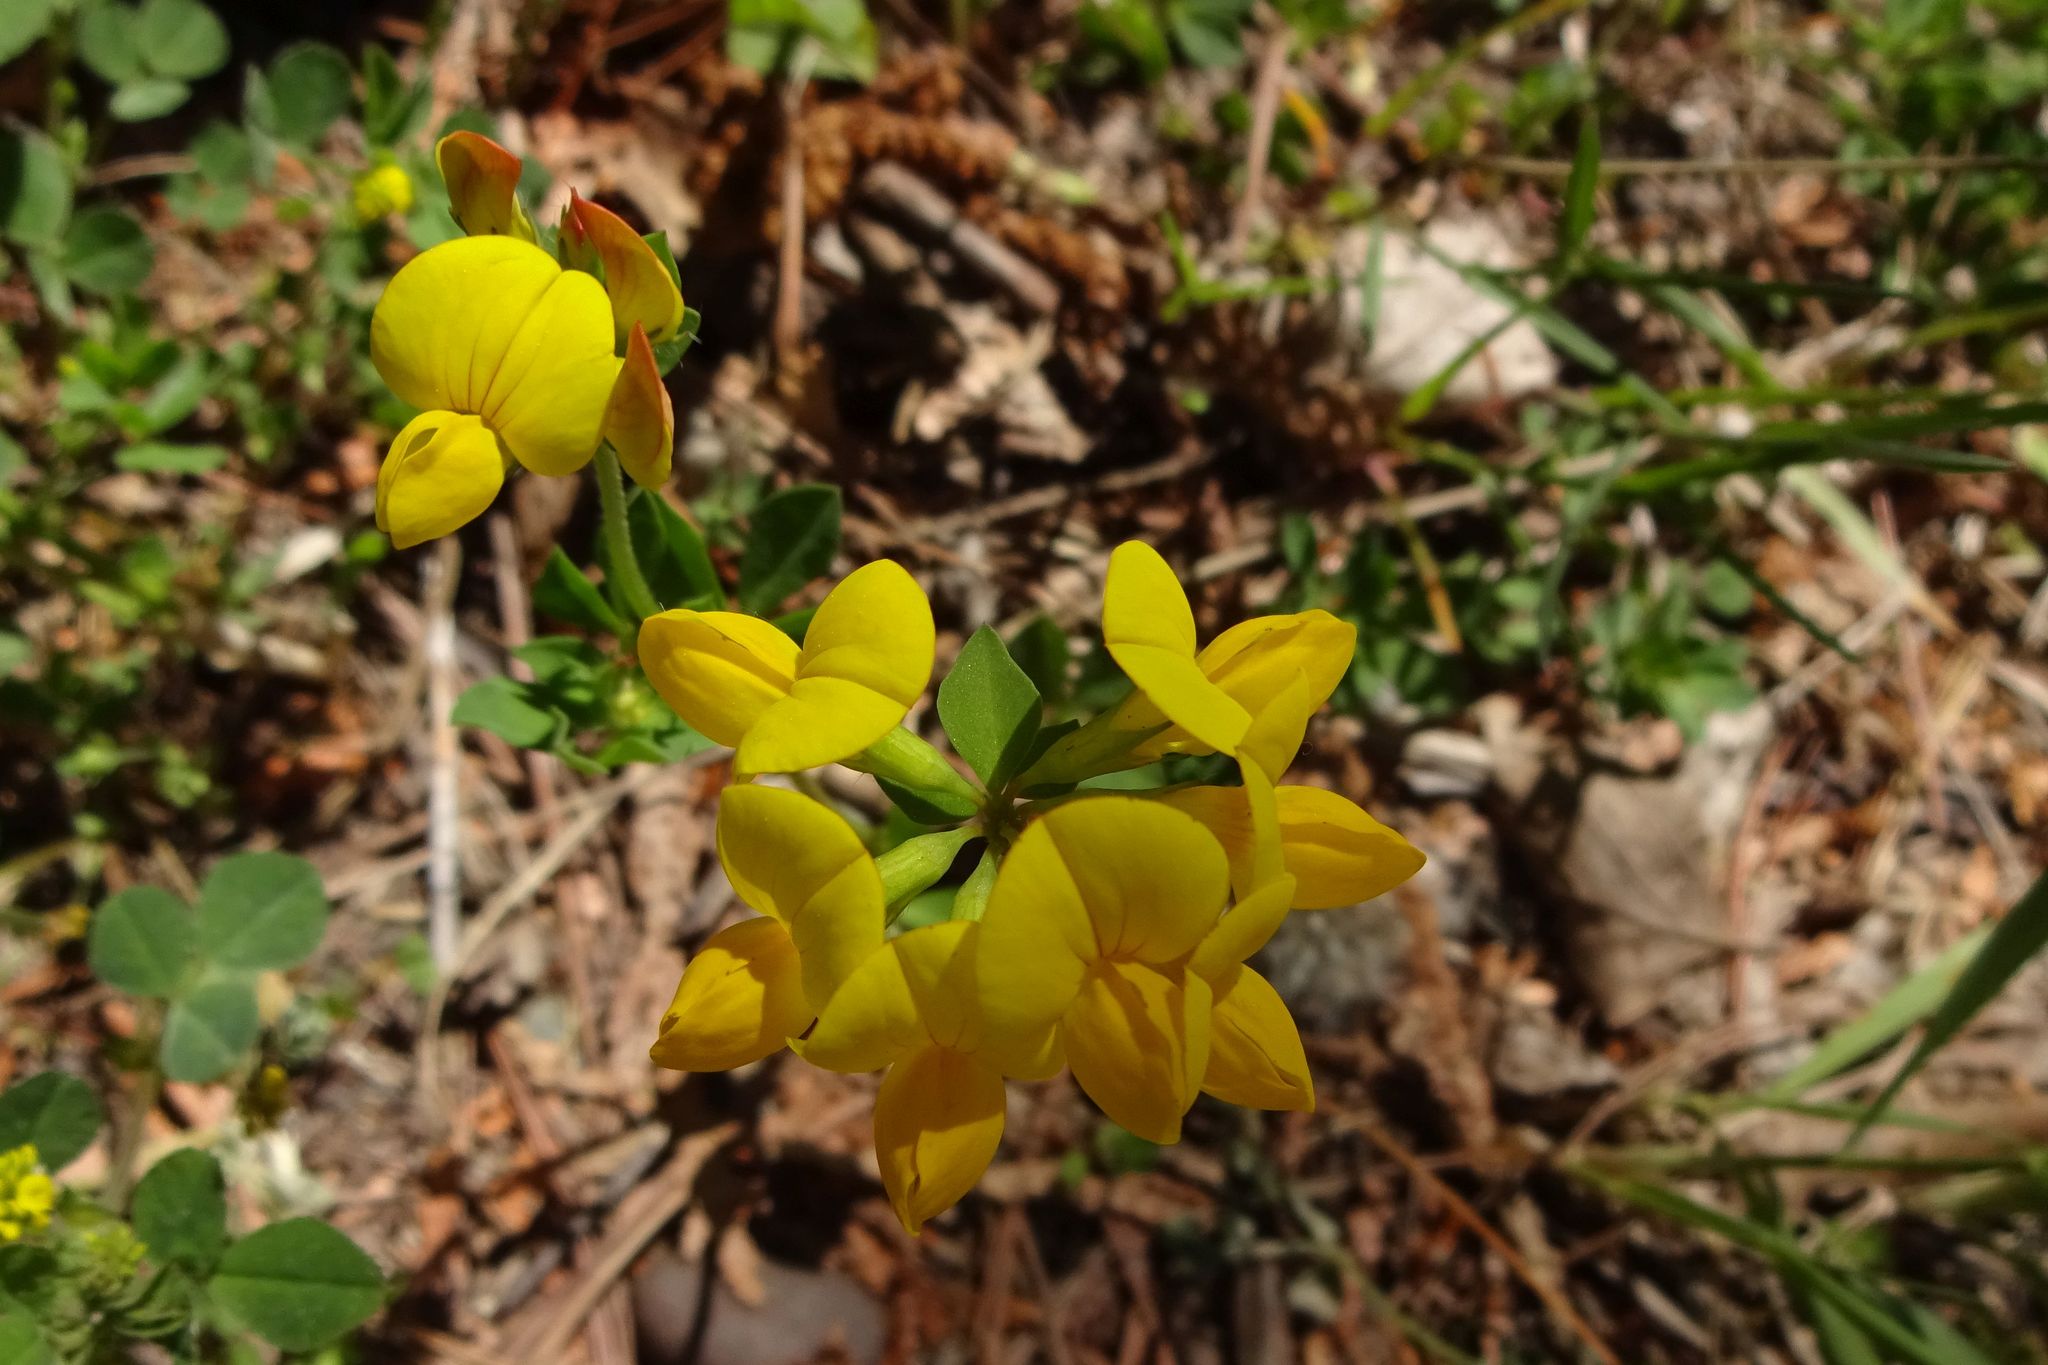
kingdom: Plantae
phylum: Tracheophyta
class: Magnoliopsida
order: Fabales
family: Fabaceae
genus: Lotus
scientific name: Lotus corniculatus
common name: Common bird's-foot-trefoil
